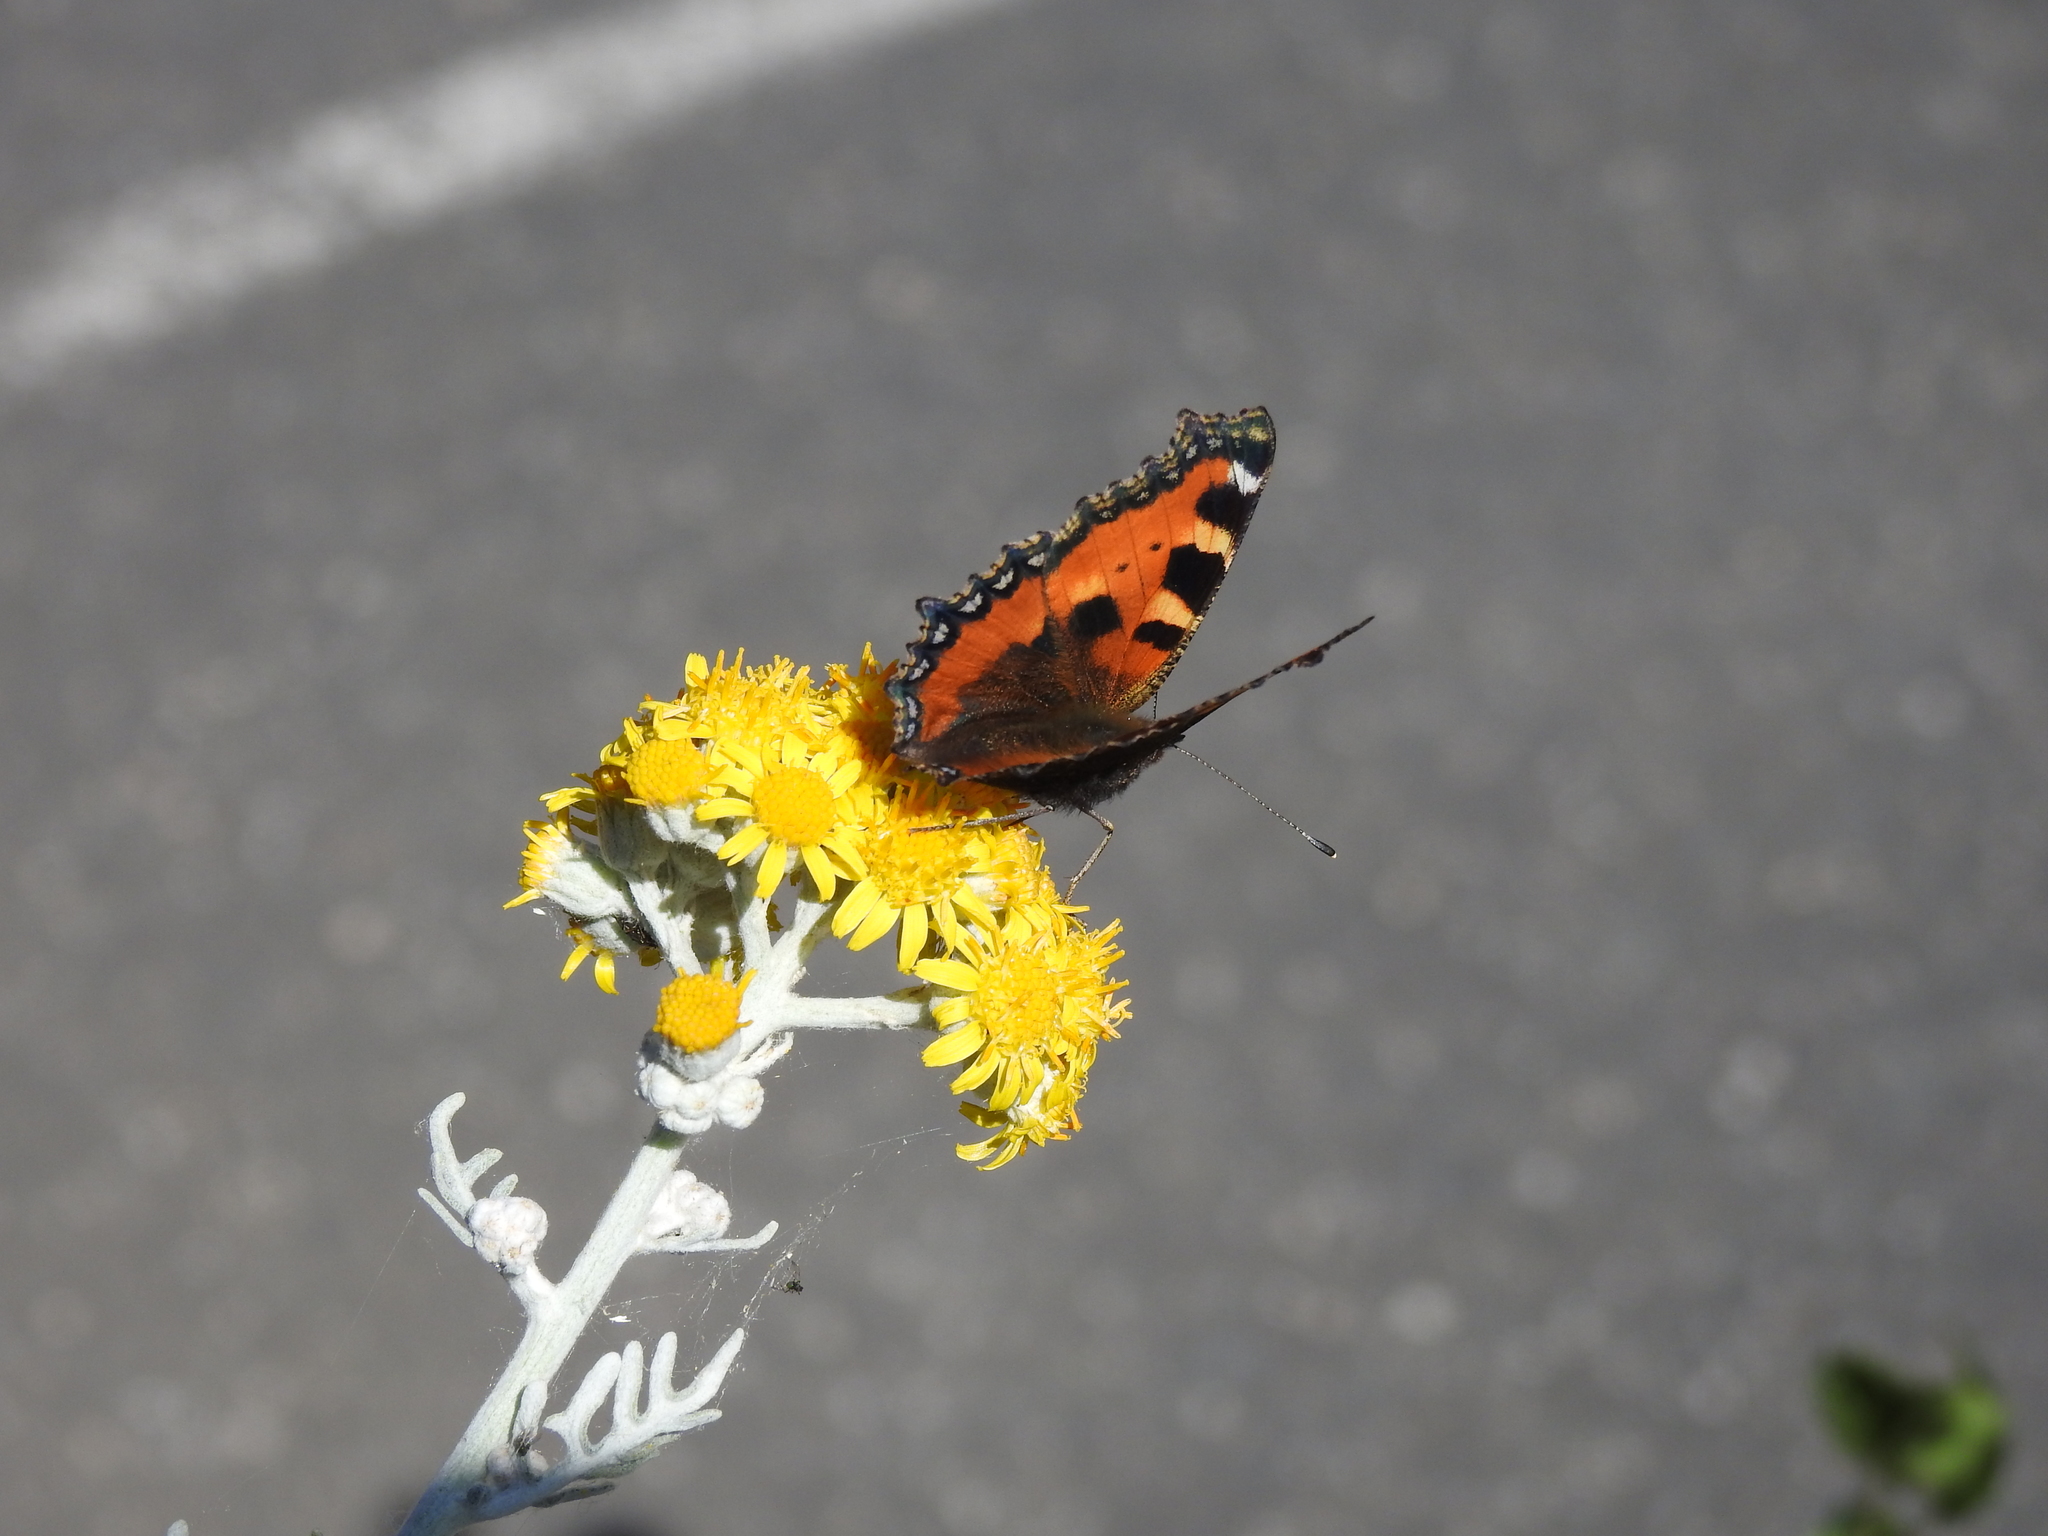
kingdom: Animalia
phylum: Arthropoda
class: Insecta
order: Lepidoptera
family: Nymphalidae
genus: Aglais
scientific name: Aglais urticae
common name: Small tortoiseshell
